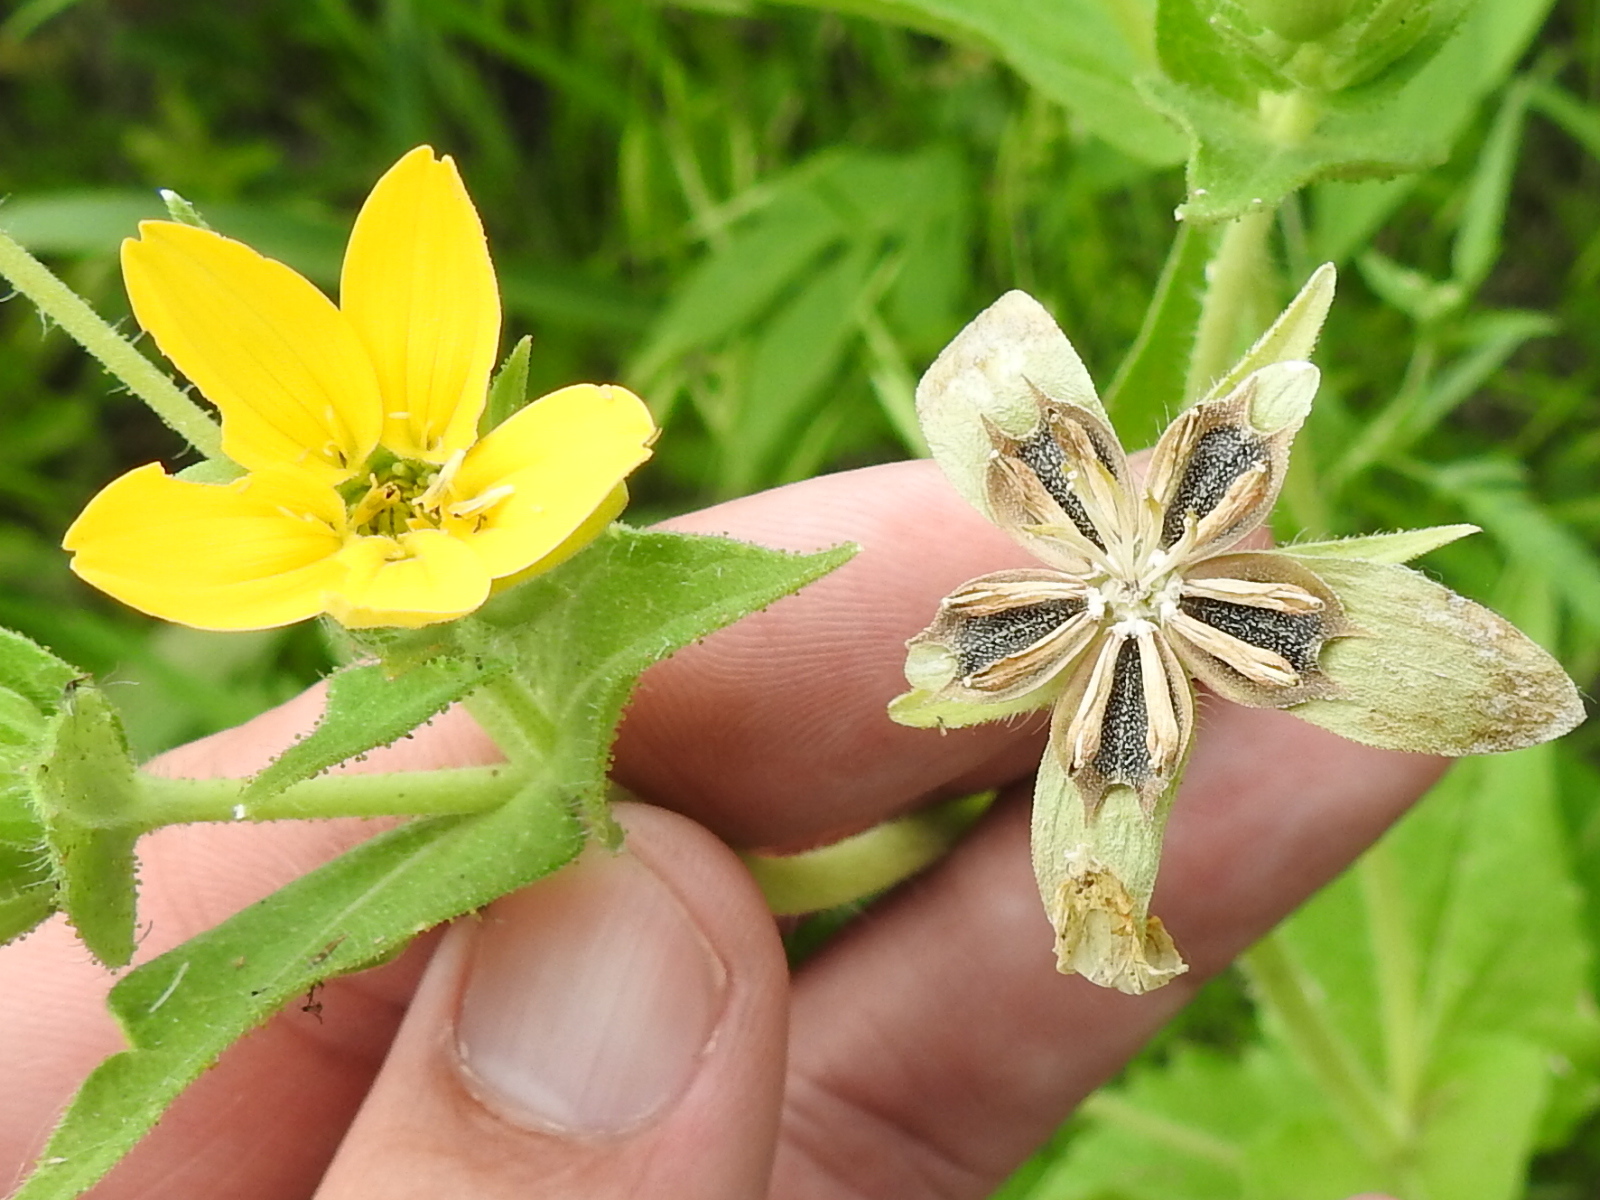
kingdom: Plantae
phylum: Tracheophyta
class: Magnoliopsida
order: Asterales
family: Asteraceae
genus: Lindheimera
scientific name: Lindheimera texana
